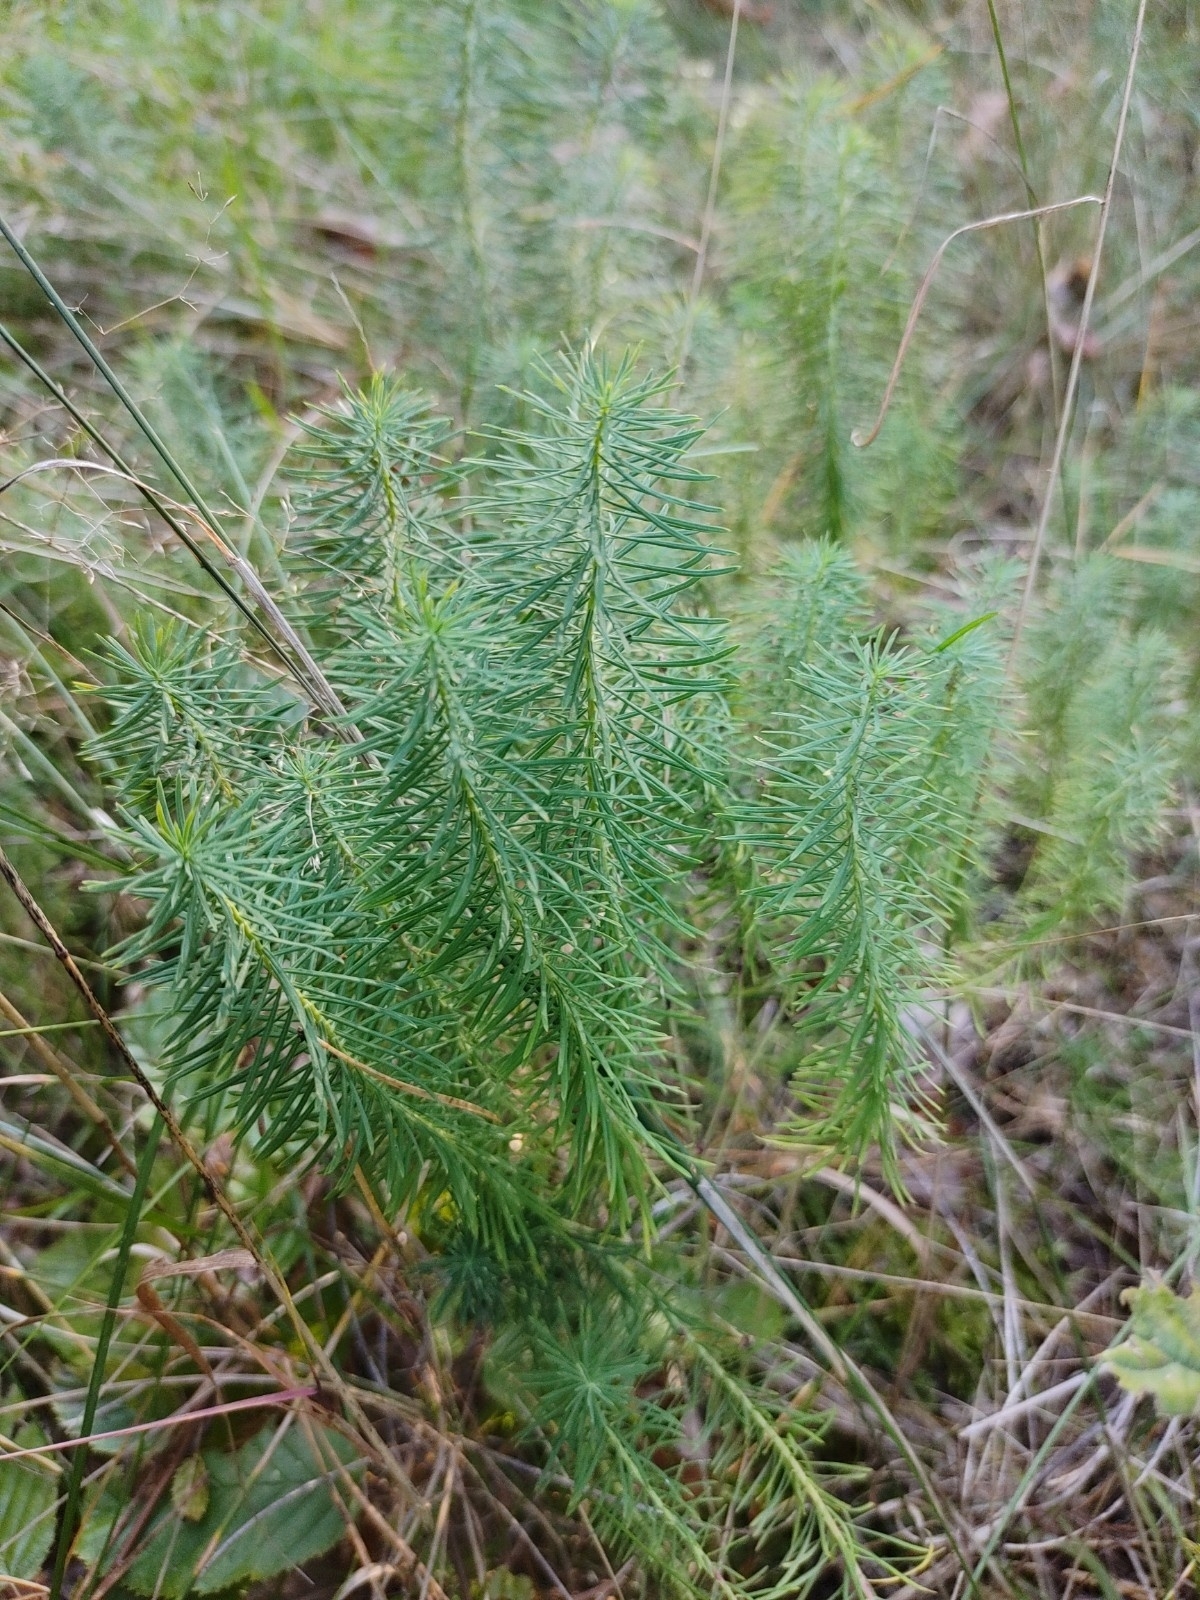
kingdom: Plantae
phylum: Tracheophyta
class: Magnoliopsida
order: Malpighiales
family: Euphorbiaceae
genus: Euphorbia
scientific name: Euphorbia cyparissias
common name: Cypress spurge
